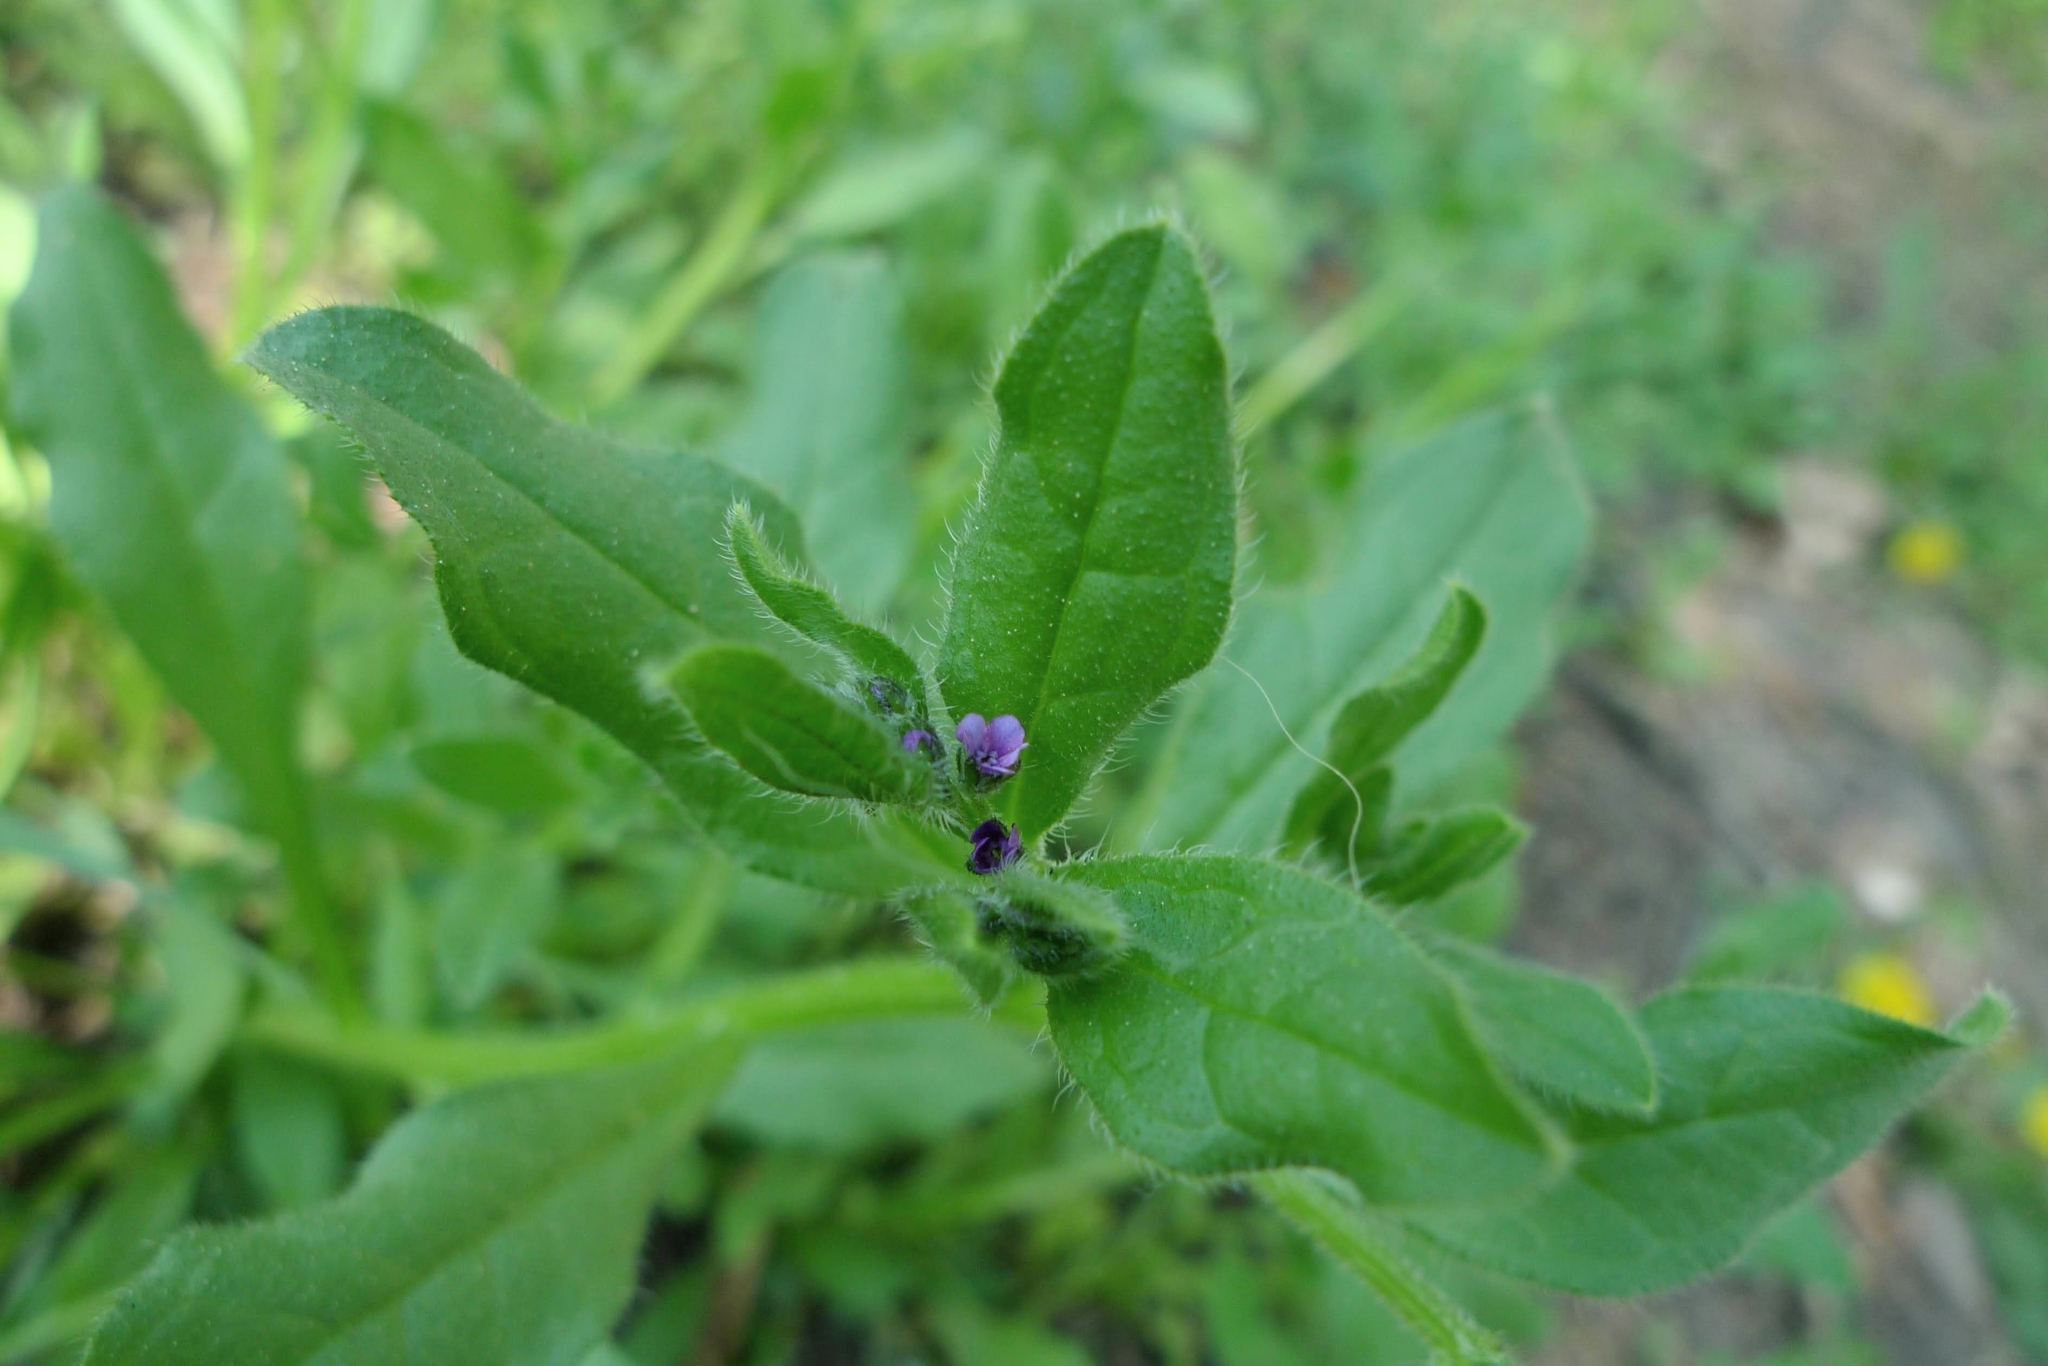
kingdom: Plantae
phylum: Tracheophyta
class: Magnoliopsida
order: Boraginales
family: Boraginaceae
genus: Asperugo
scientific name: Asperugo procumbens
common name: Madwort
